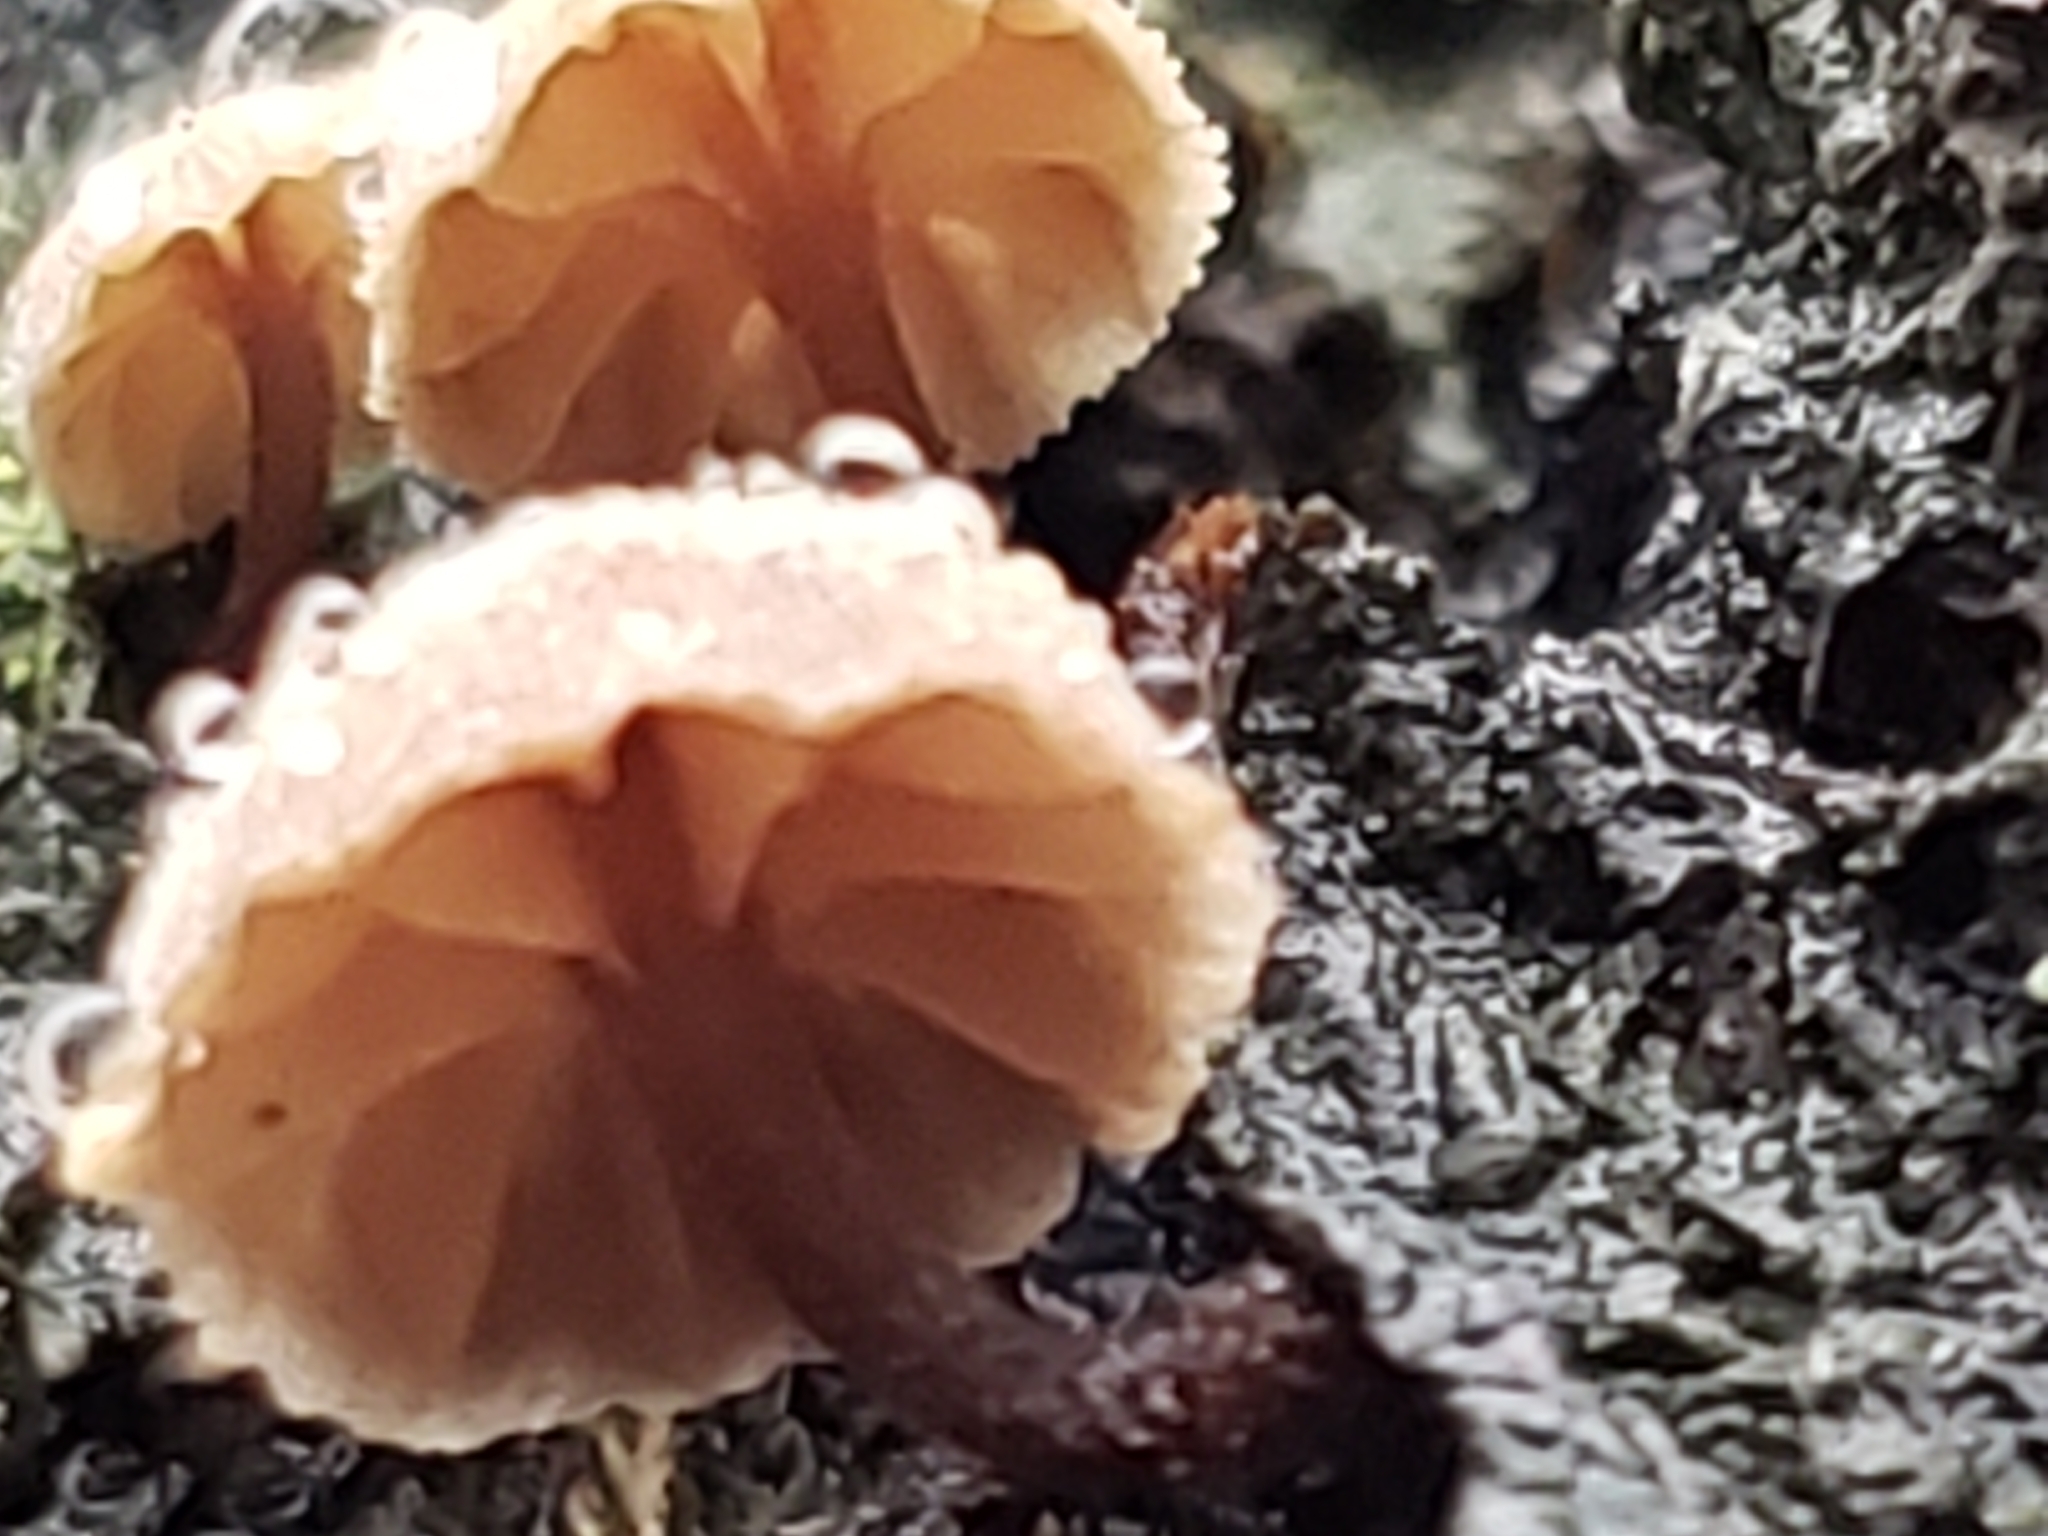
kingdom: Fungi
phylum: Basidiomycota
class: Agaricomycetes
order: Agaricales
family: Mycenaceae
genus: Mycena
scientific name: Mycena corticola
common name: Bark mycena
